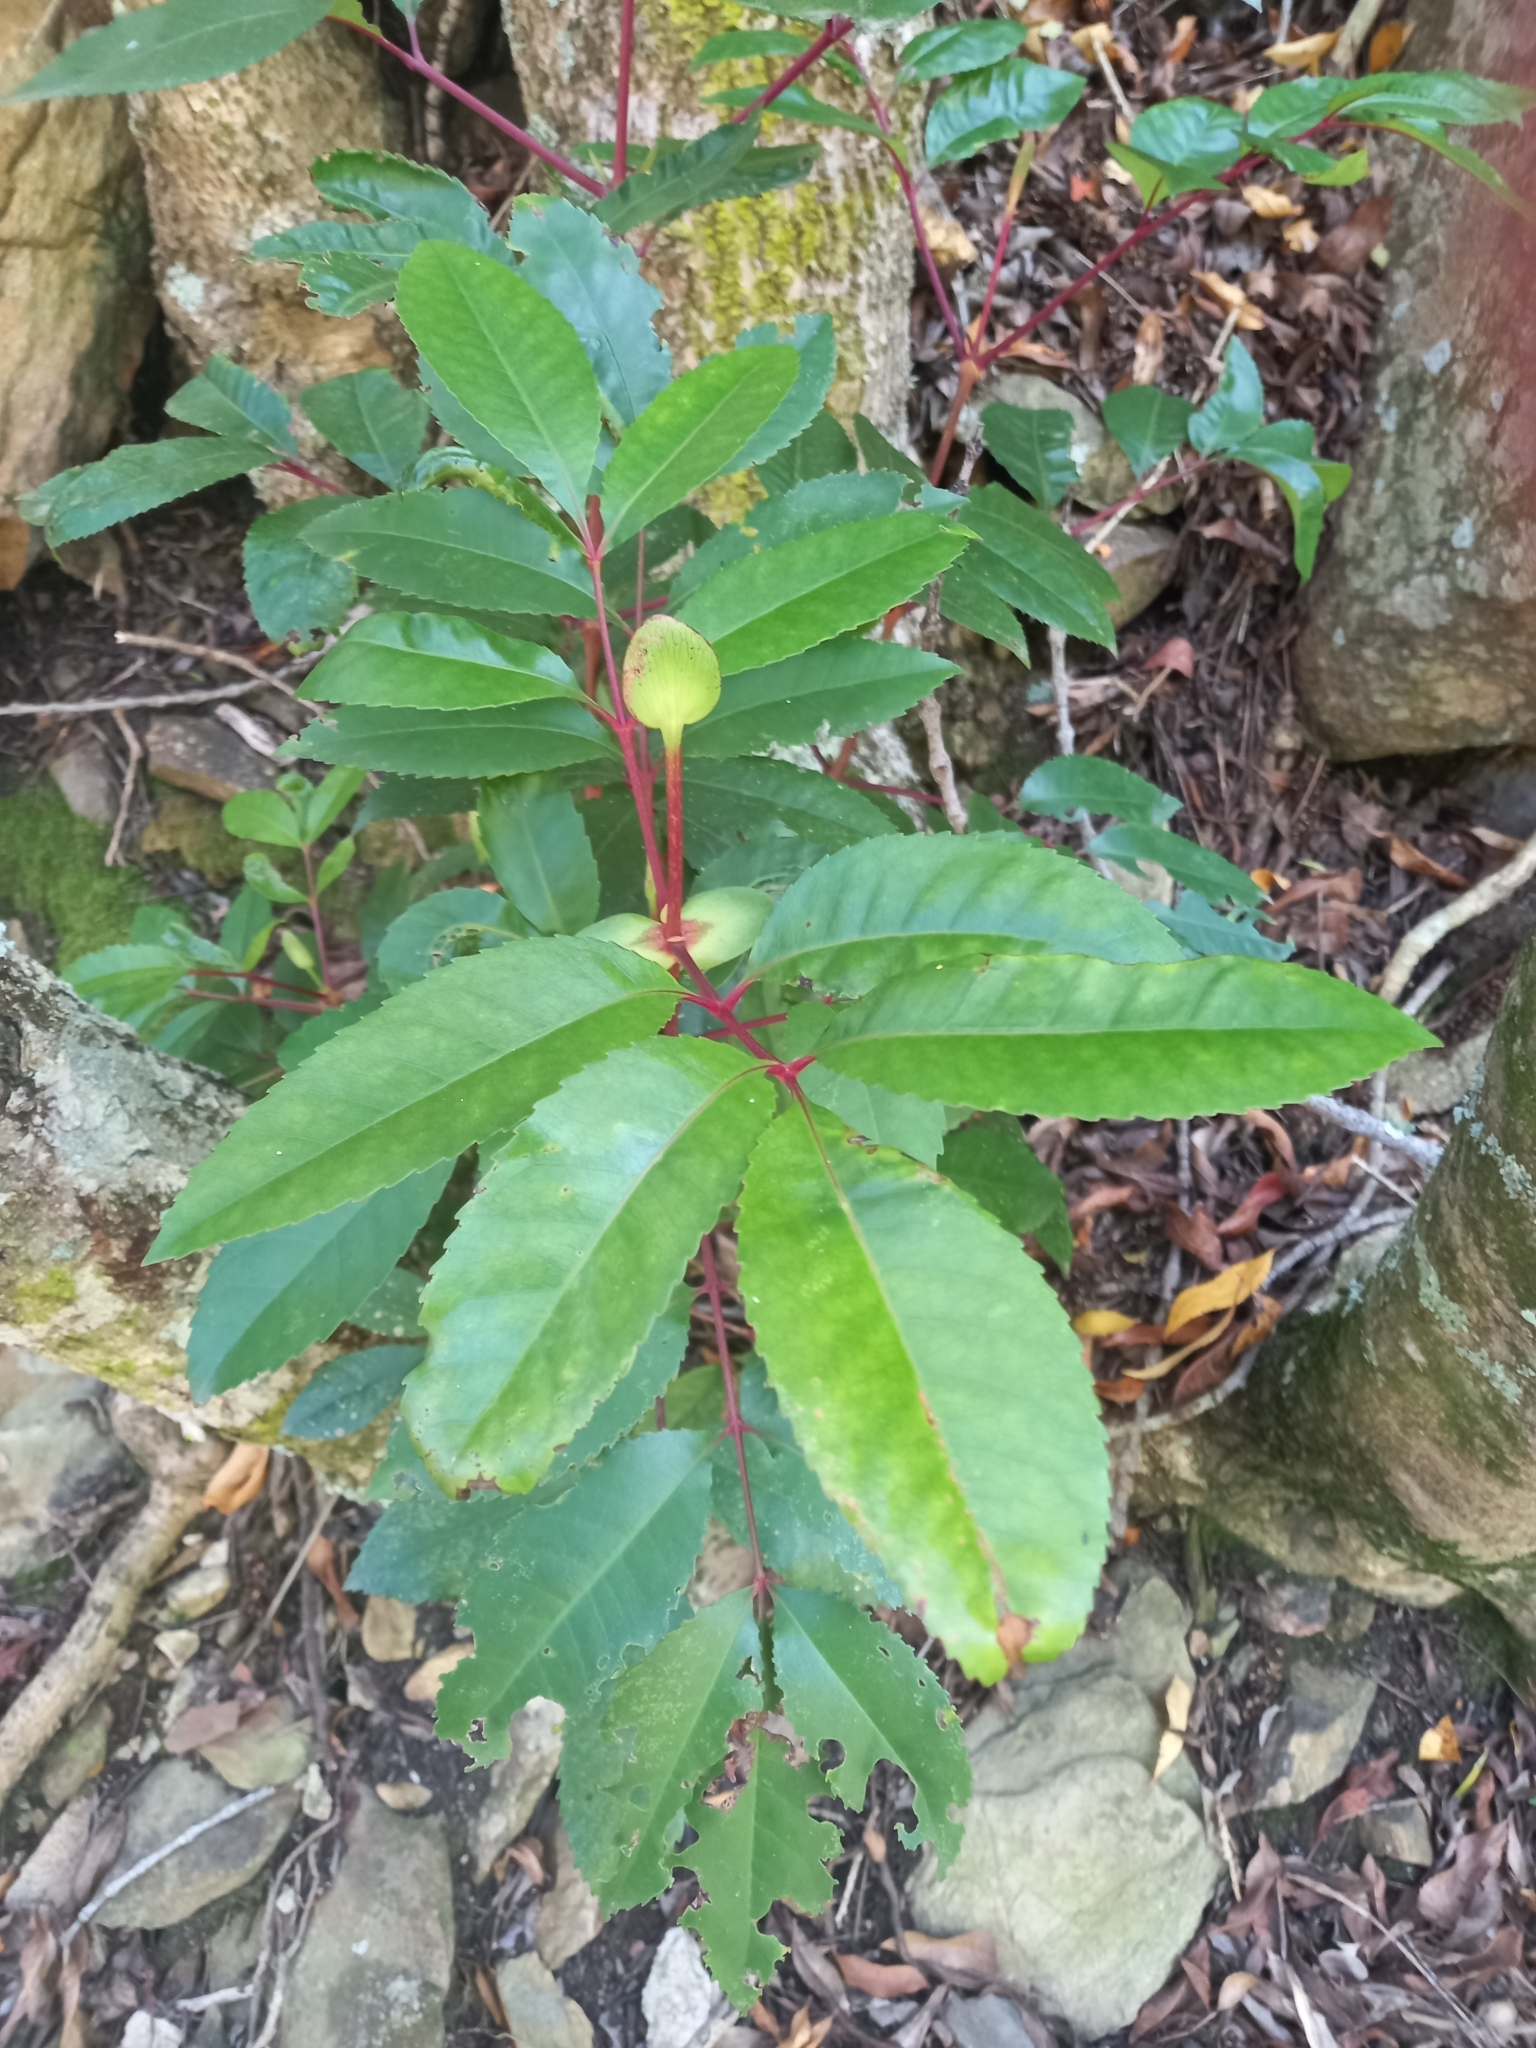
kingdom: Plantae
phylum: Tracheophyta
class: Magnoliopsida
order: Oxalidales
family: Cunoniaceae
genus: Cunonia
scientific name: Cunonia capensis
